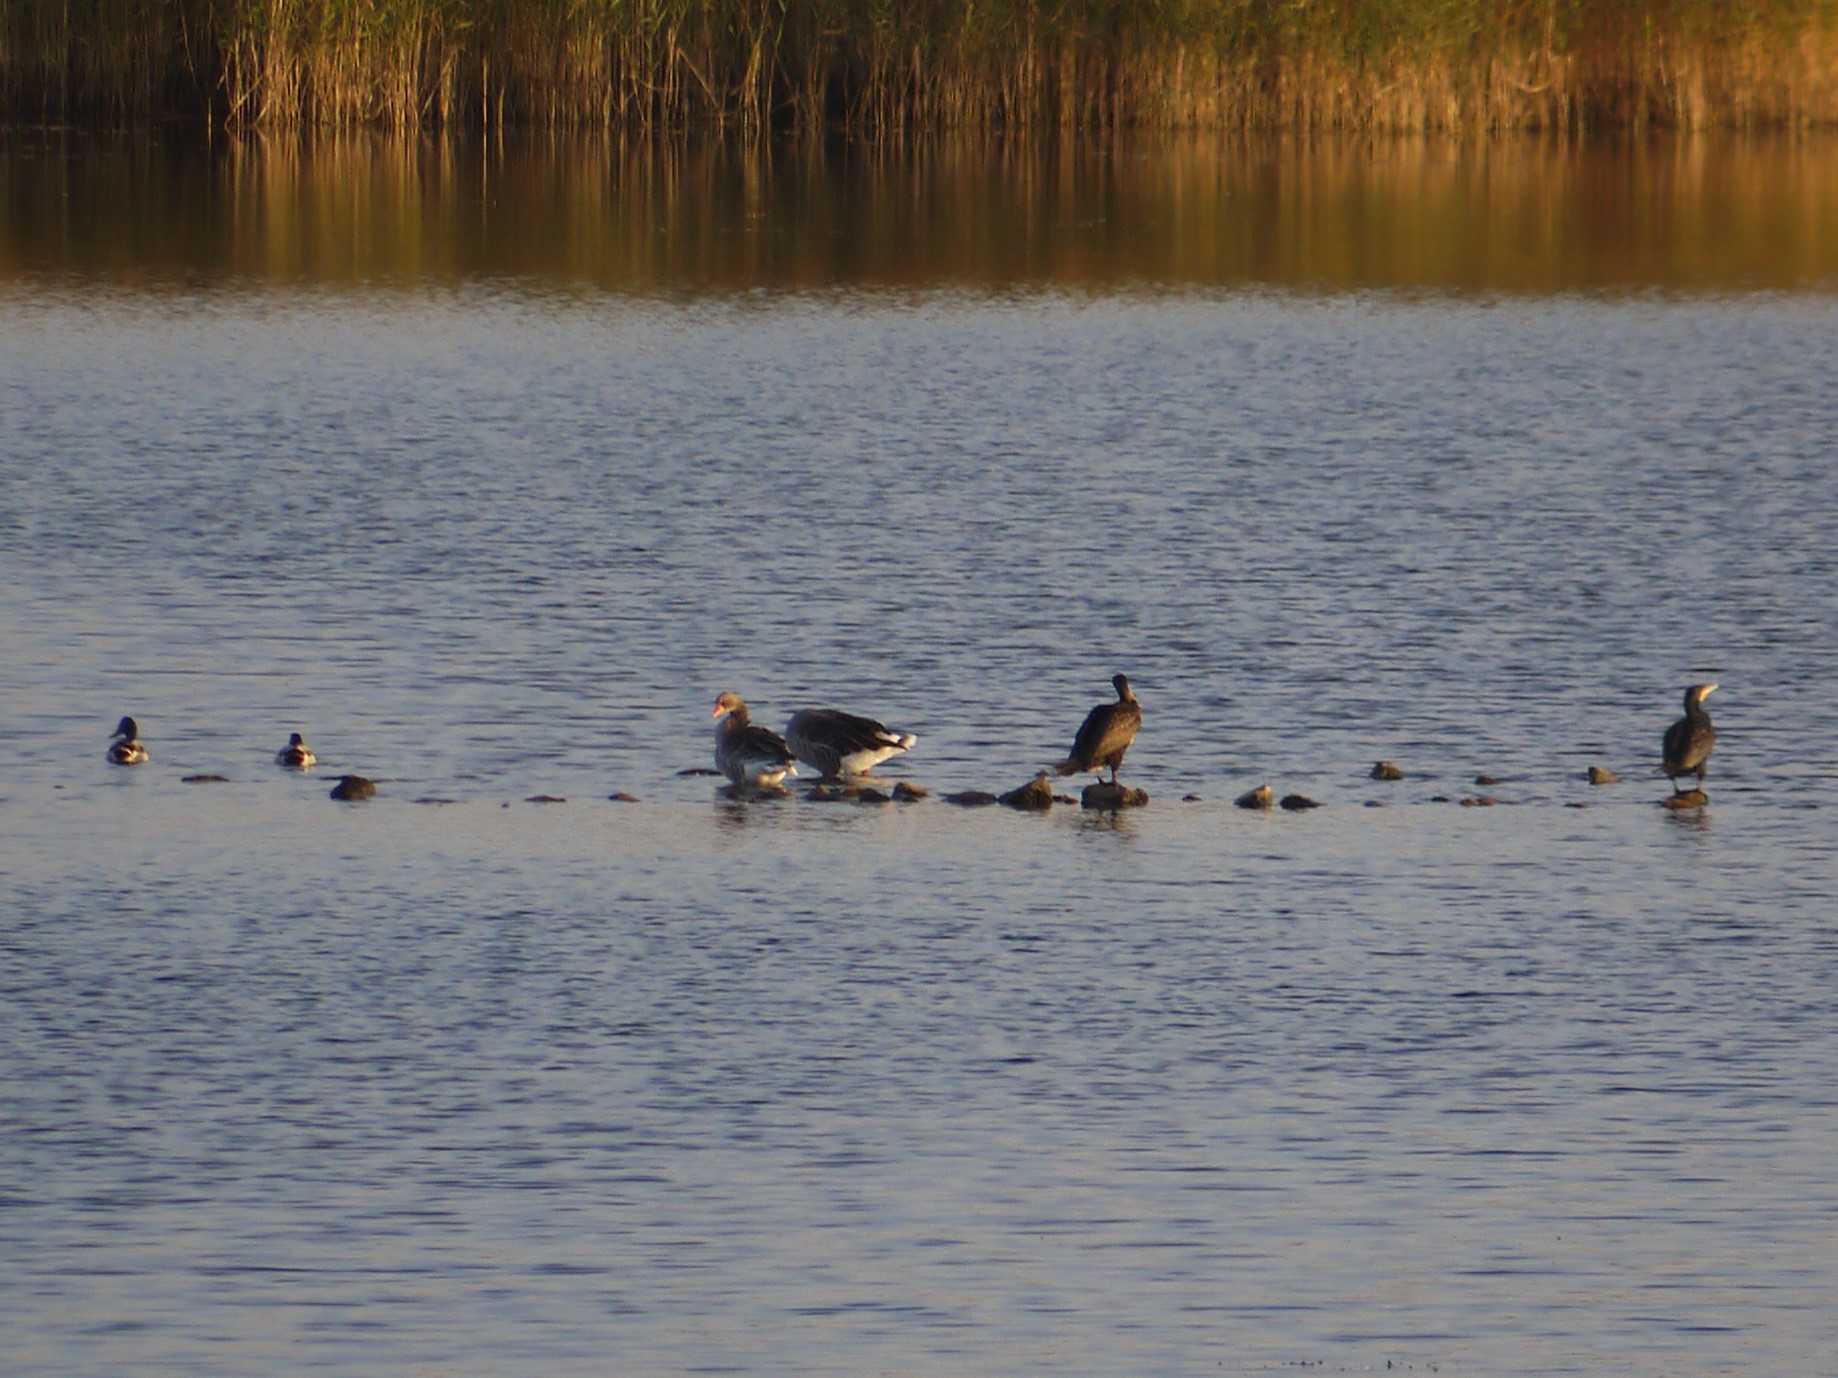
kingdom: Animalia
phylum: Chordata
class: Aves
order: Anseriformes
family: Anatidae
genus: Anser
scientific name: Anser anser
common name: Greylag goose
